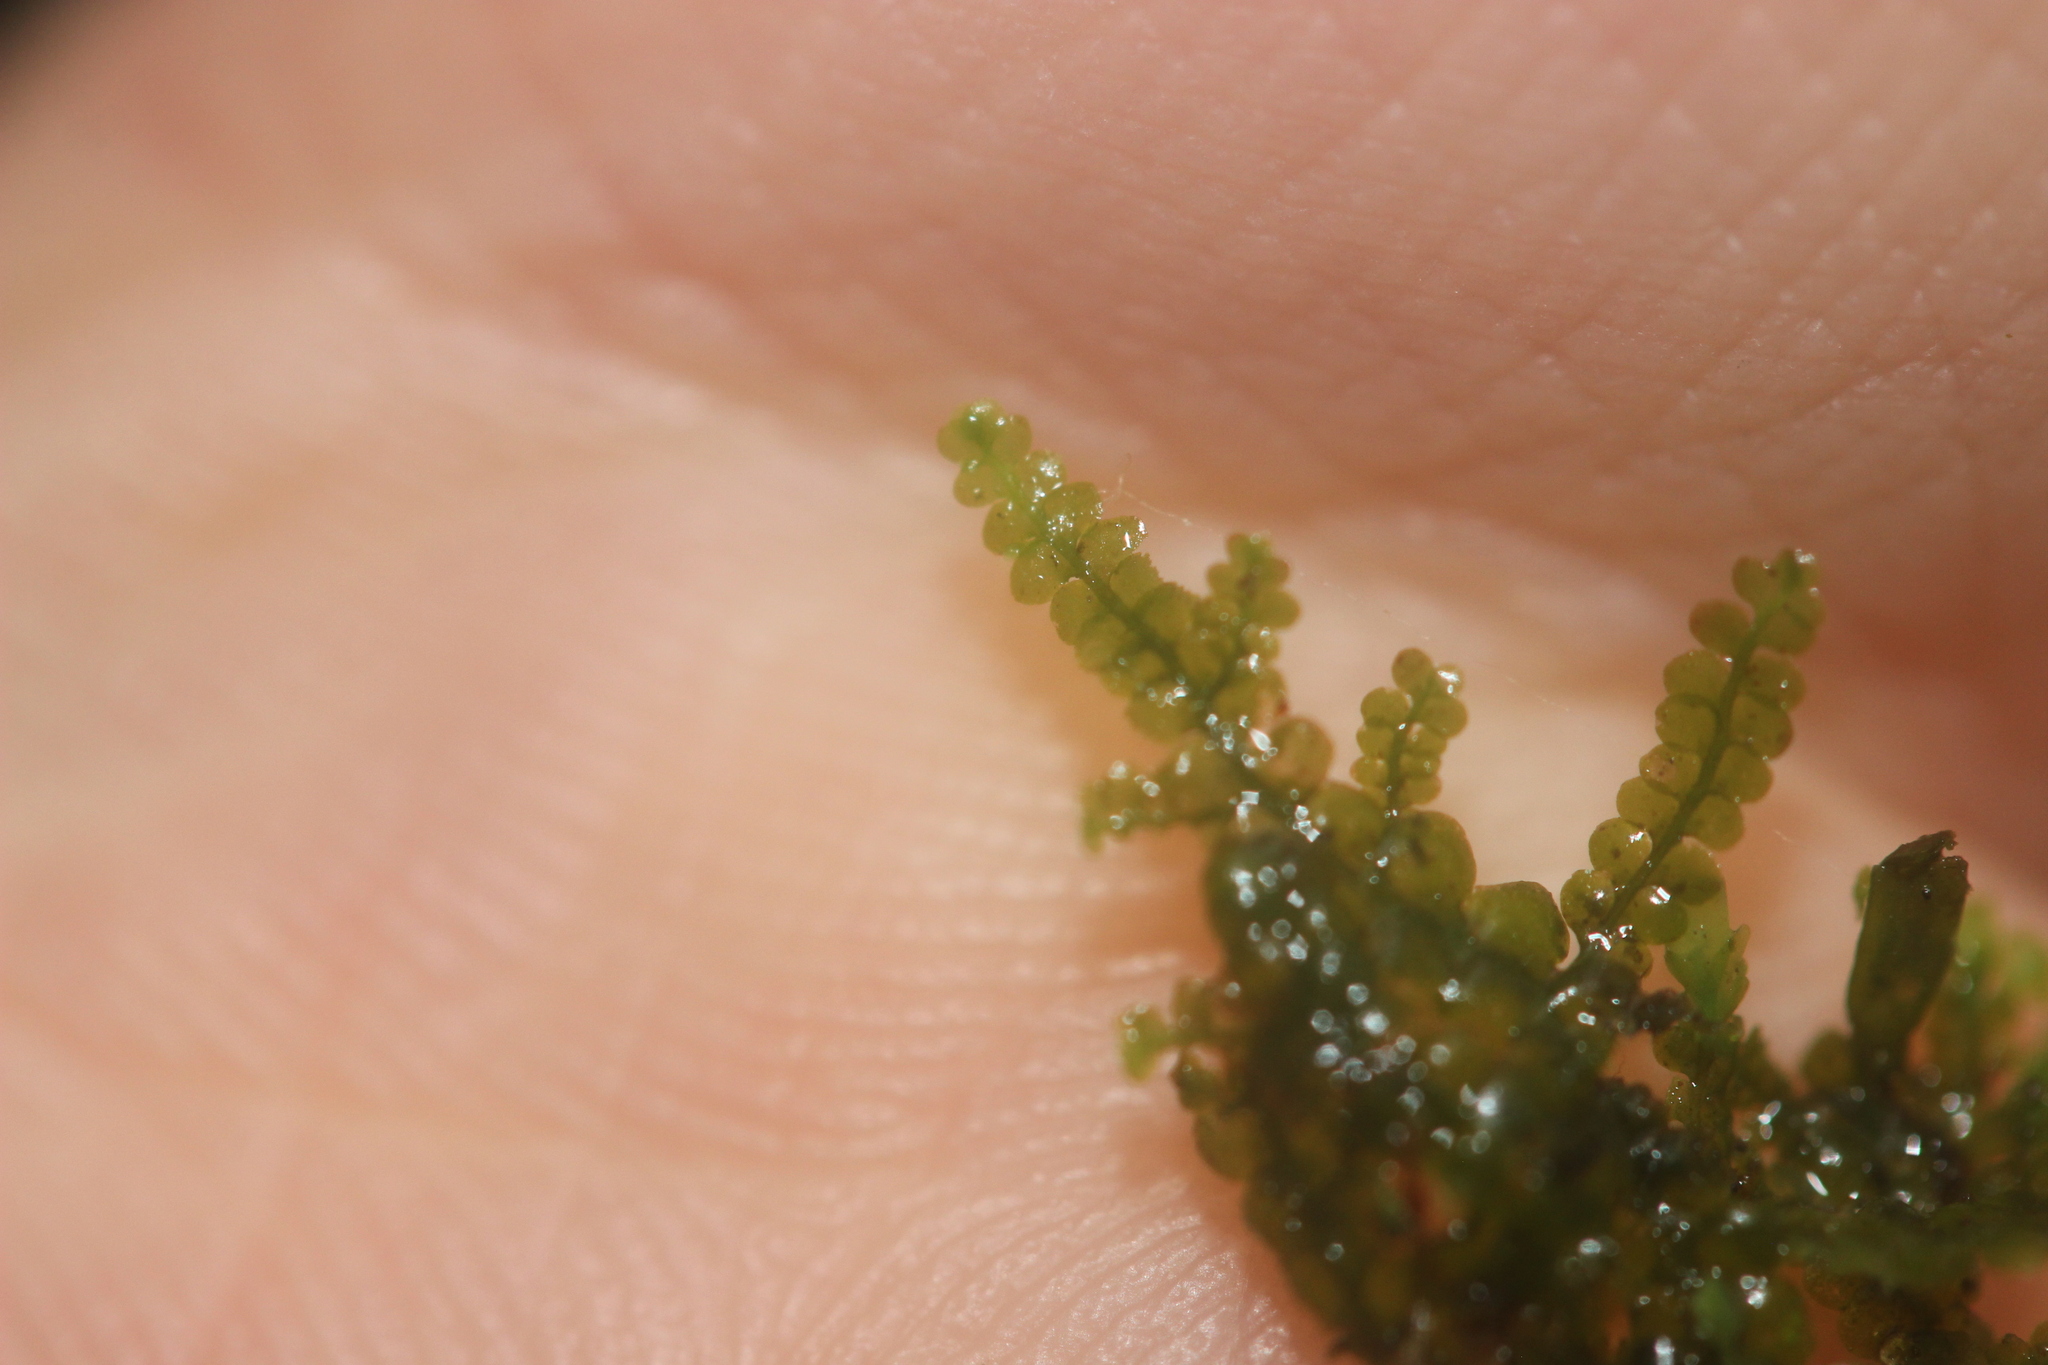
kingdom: Plantae
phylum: Marchantiophyta
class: Jungermanniopsida
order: Porellales
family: Radulaceae
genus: Radula
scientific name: Radula strangulata
